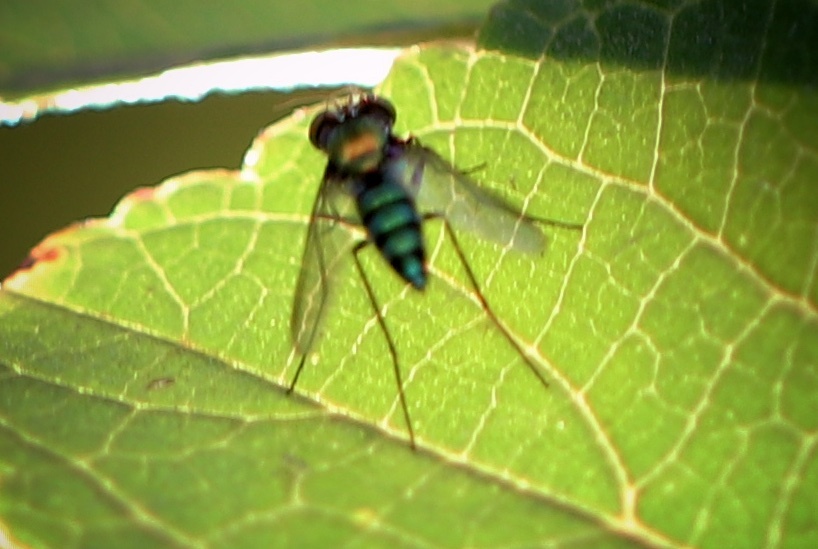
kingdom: Animalia
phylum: Arthropoda
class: Insecta
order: Diptera
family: Dolichopodidae
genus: Condylostylus
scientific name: Condylostylus longicornis
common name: Long-legged fly
